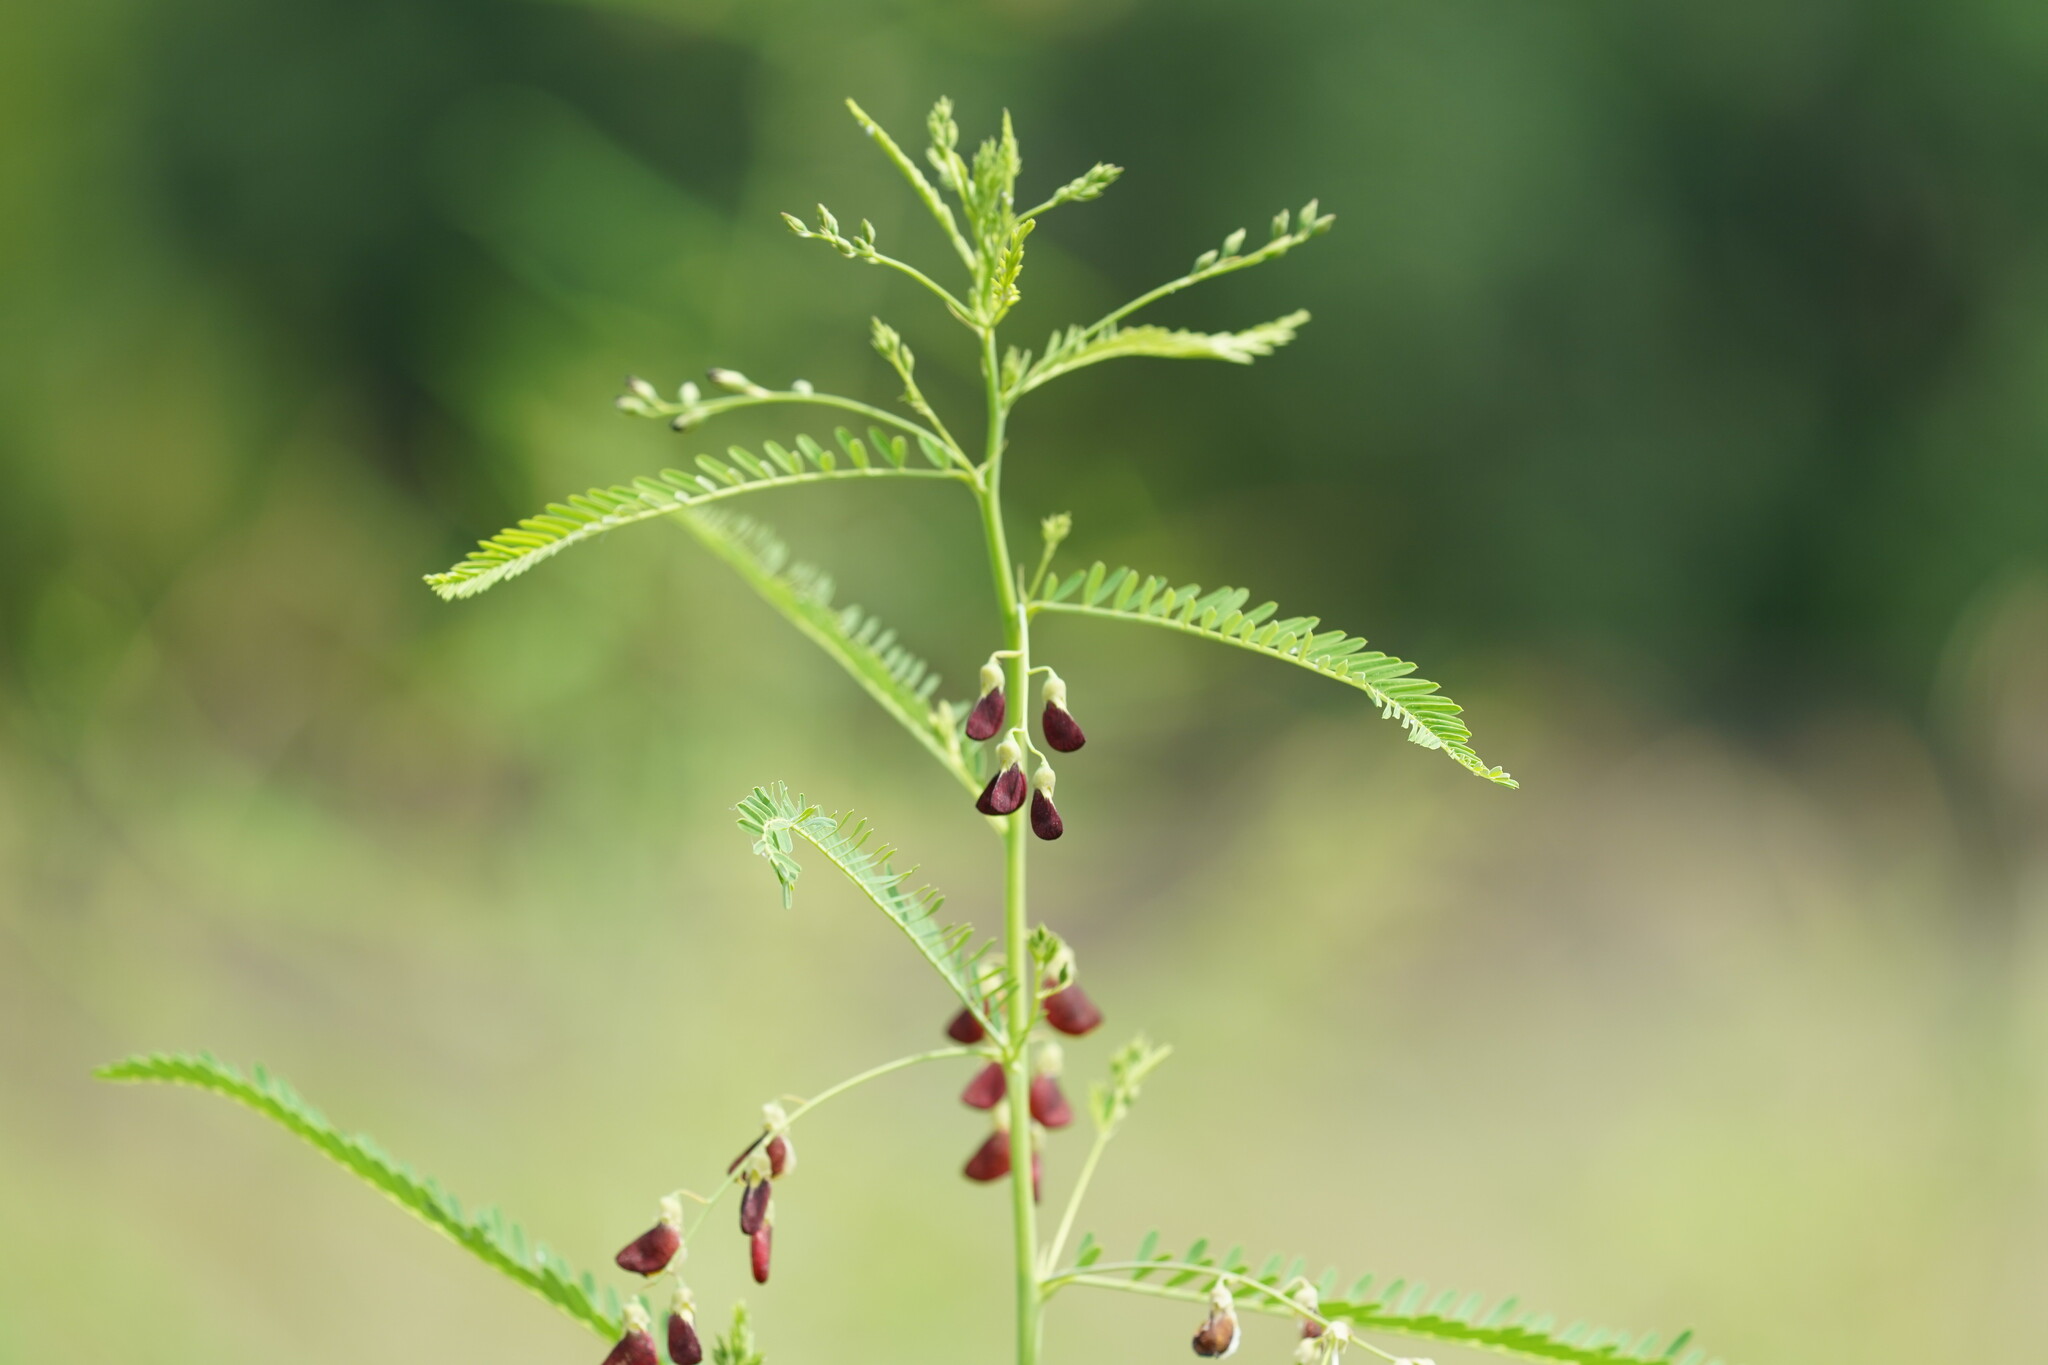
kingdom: Plantae
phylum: Tracheophyta
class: Magnoliopsida
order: Fabales
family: Fabaceae
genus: Sesbania
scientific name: Sesbania herbacea
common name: Bigpod sesbania
